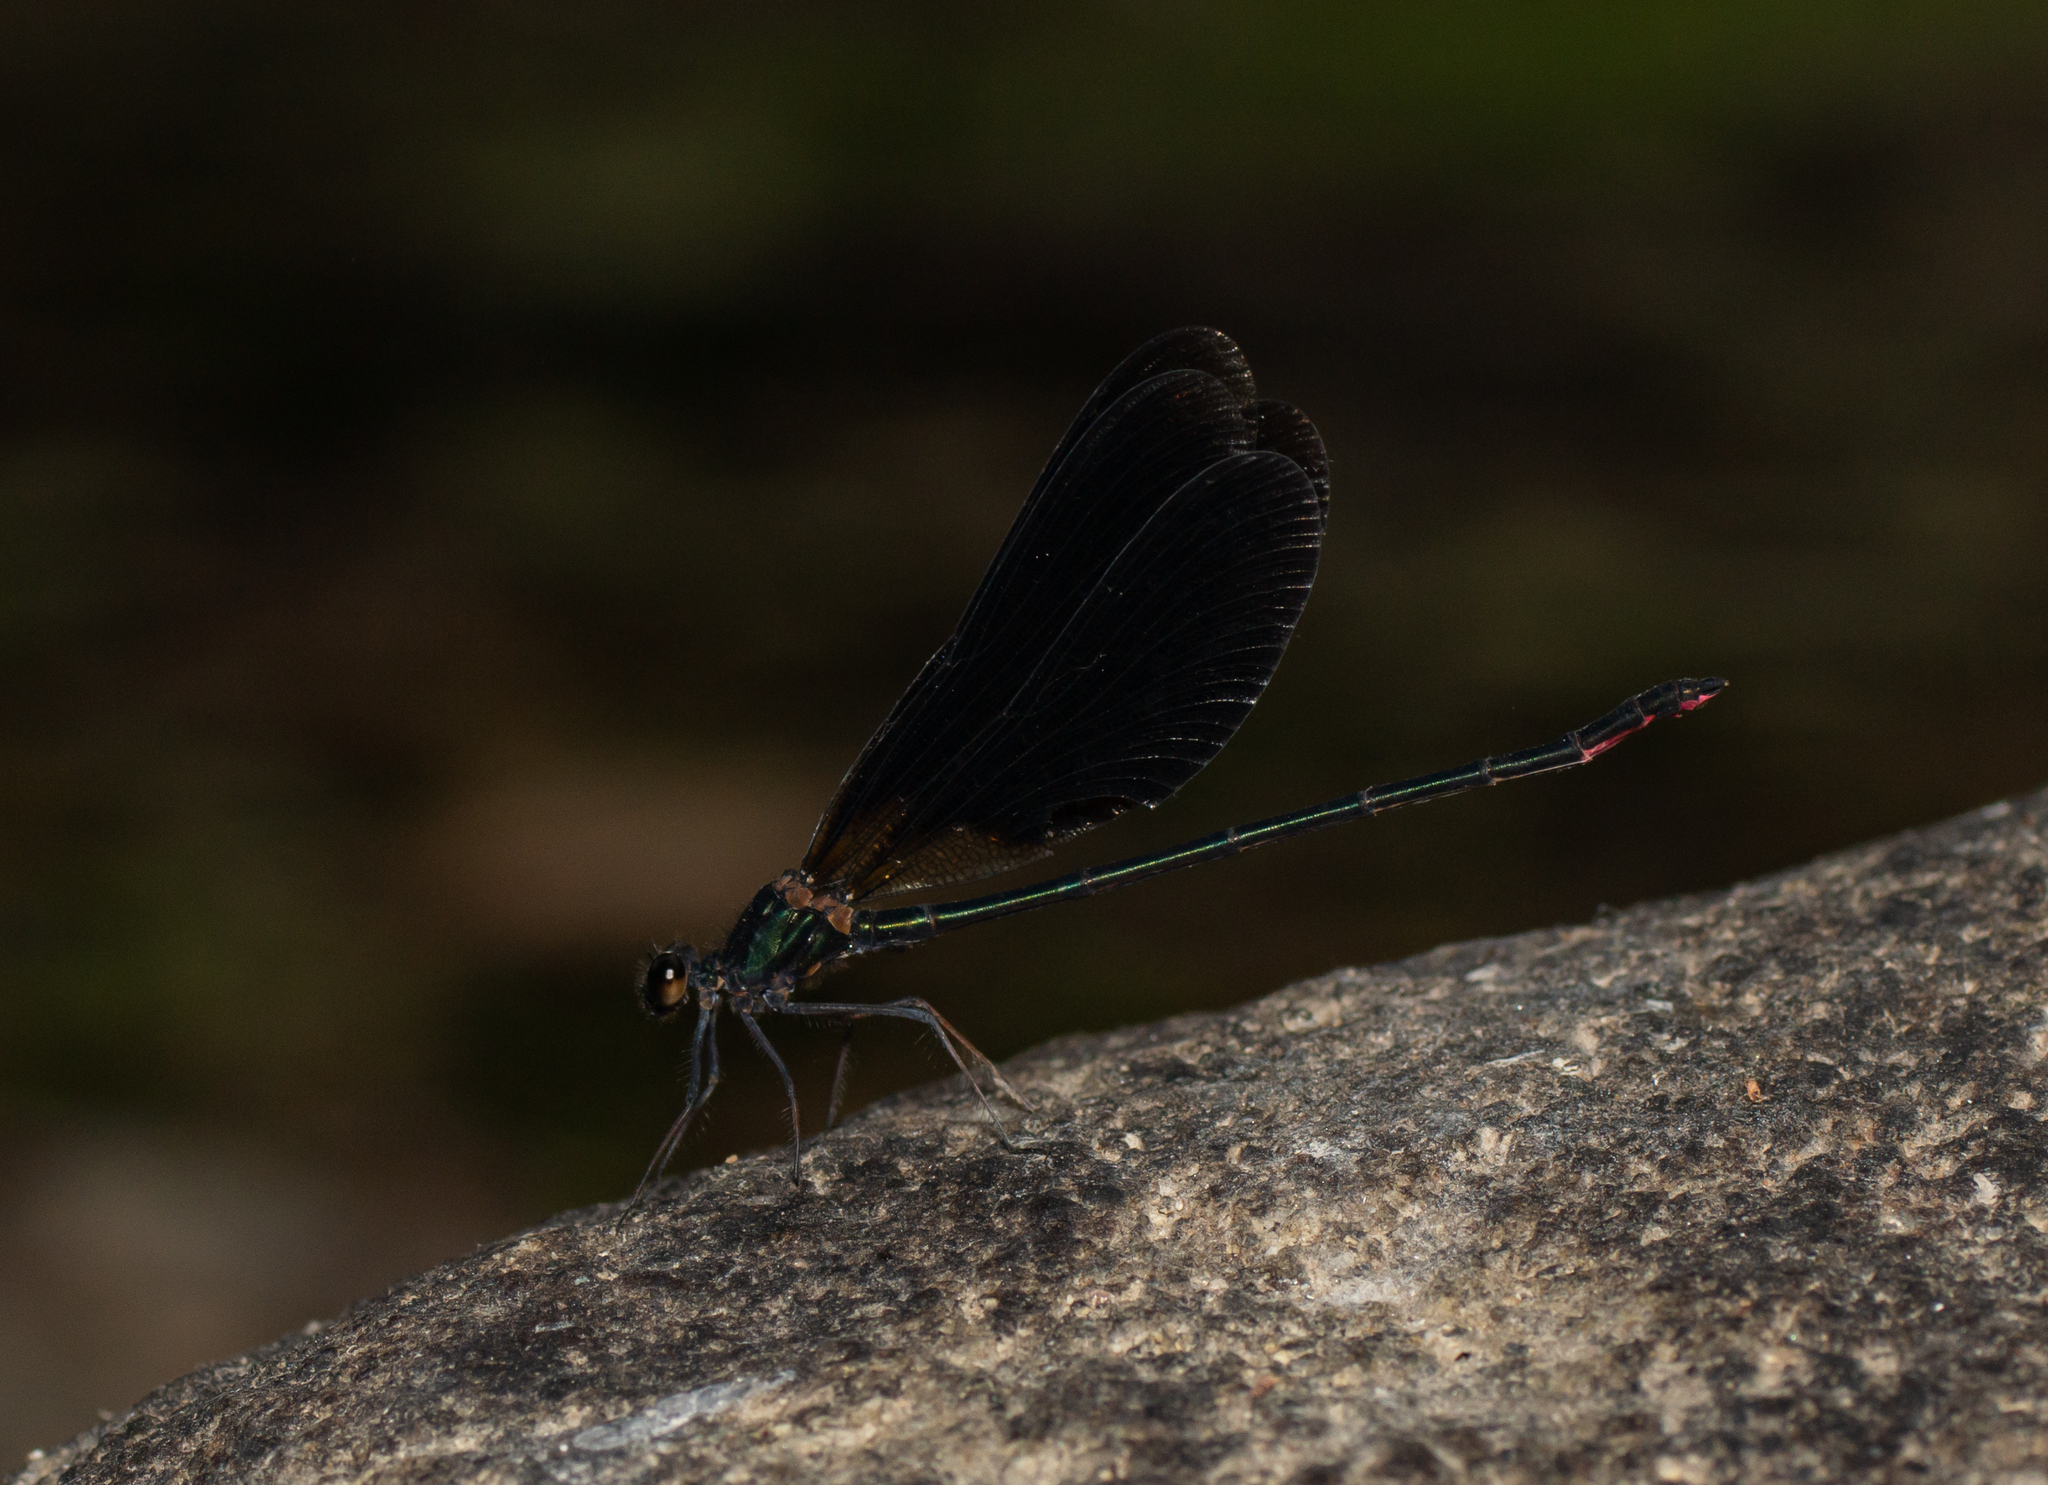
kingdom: Animalia
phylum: Arthropoda
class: Insecta
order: Odonata
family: Calopterygidae
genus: Calopteryx
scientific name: Calopteryx haemorrhoidalis
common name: Copper demoiselle
